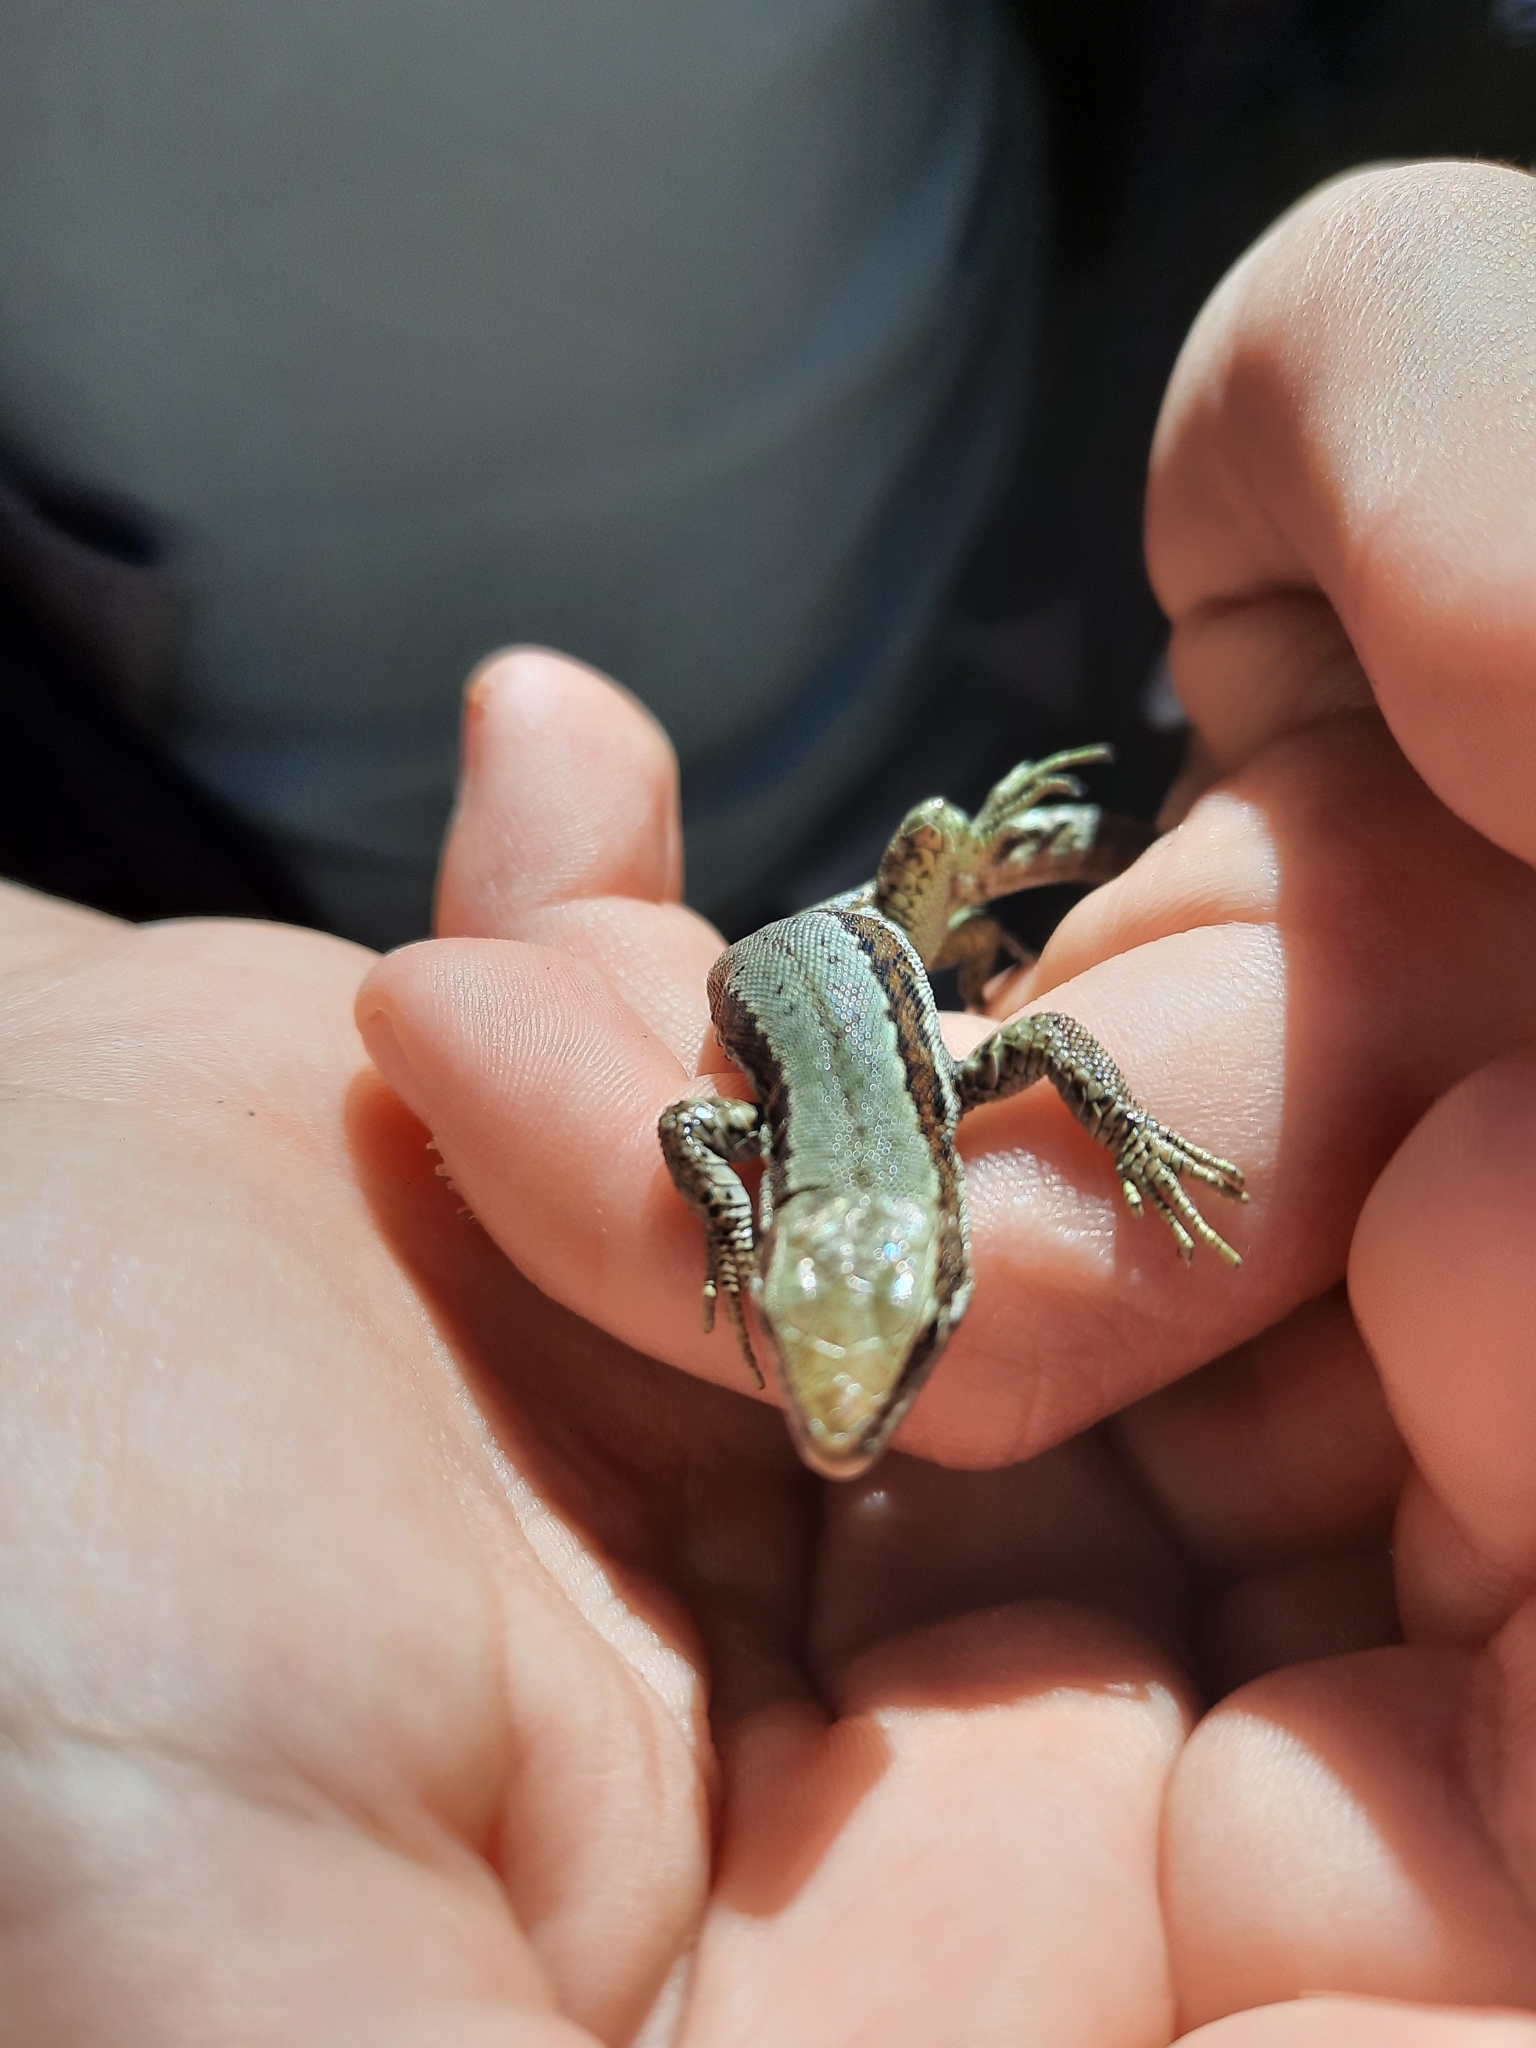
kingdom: Animalia
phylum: Chordata
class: Squamata
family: Lacertidae
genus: Iberolacerta
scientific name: Iberolacerta horvathi
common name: Horvath's rock lizard
